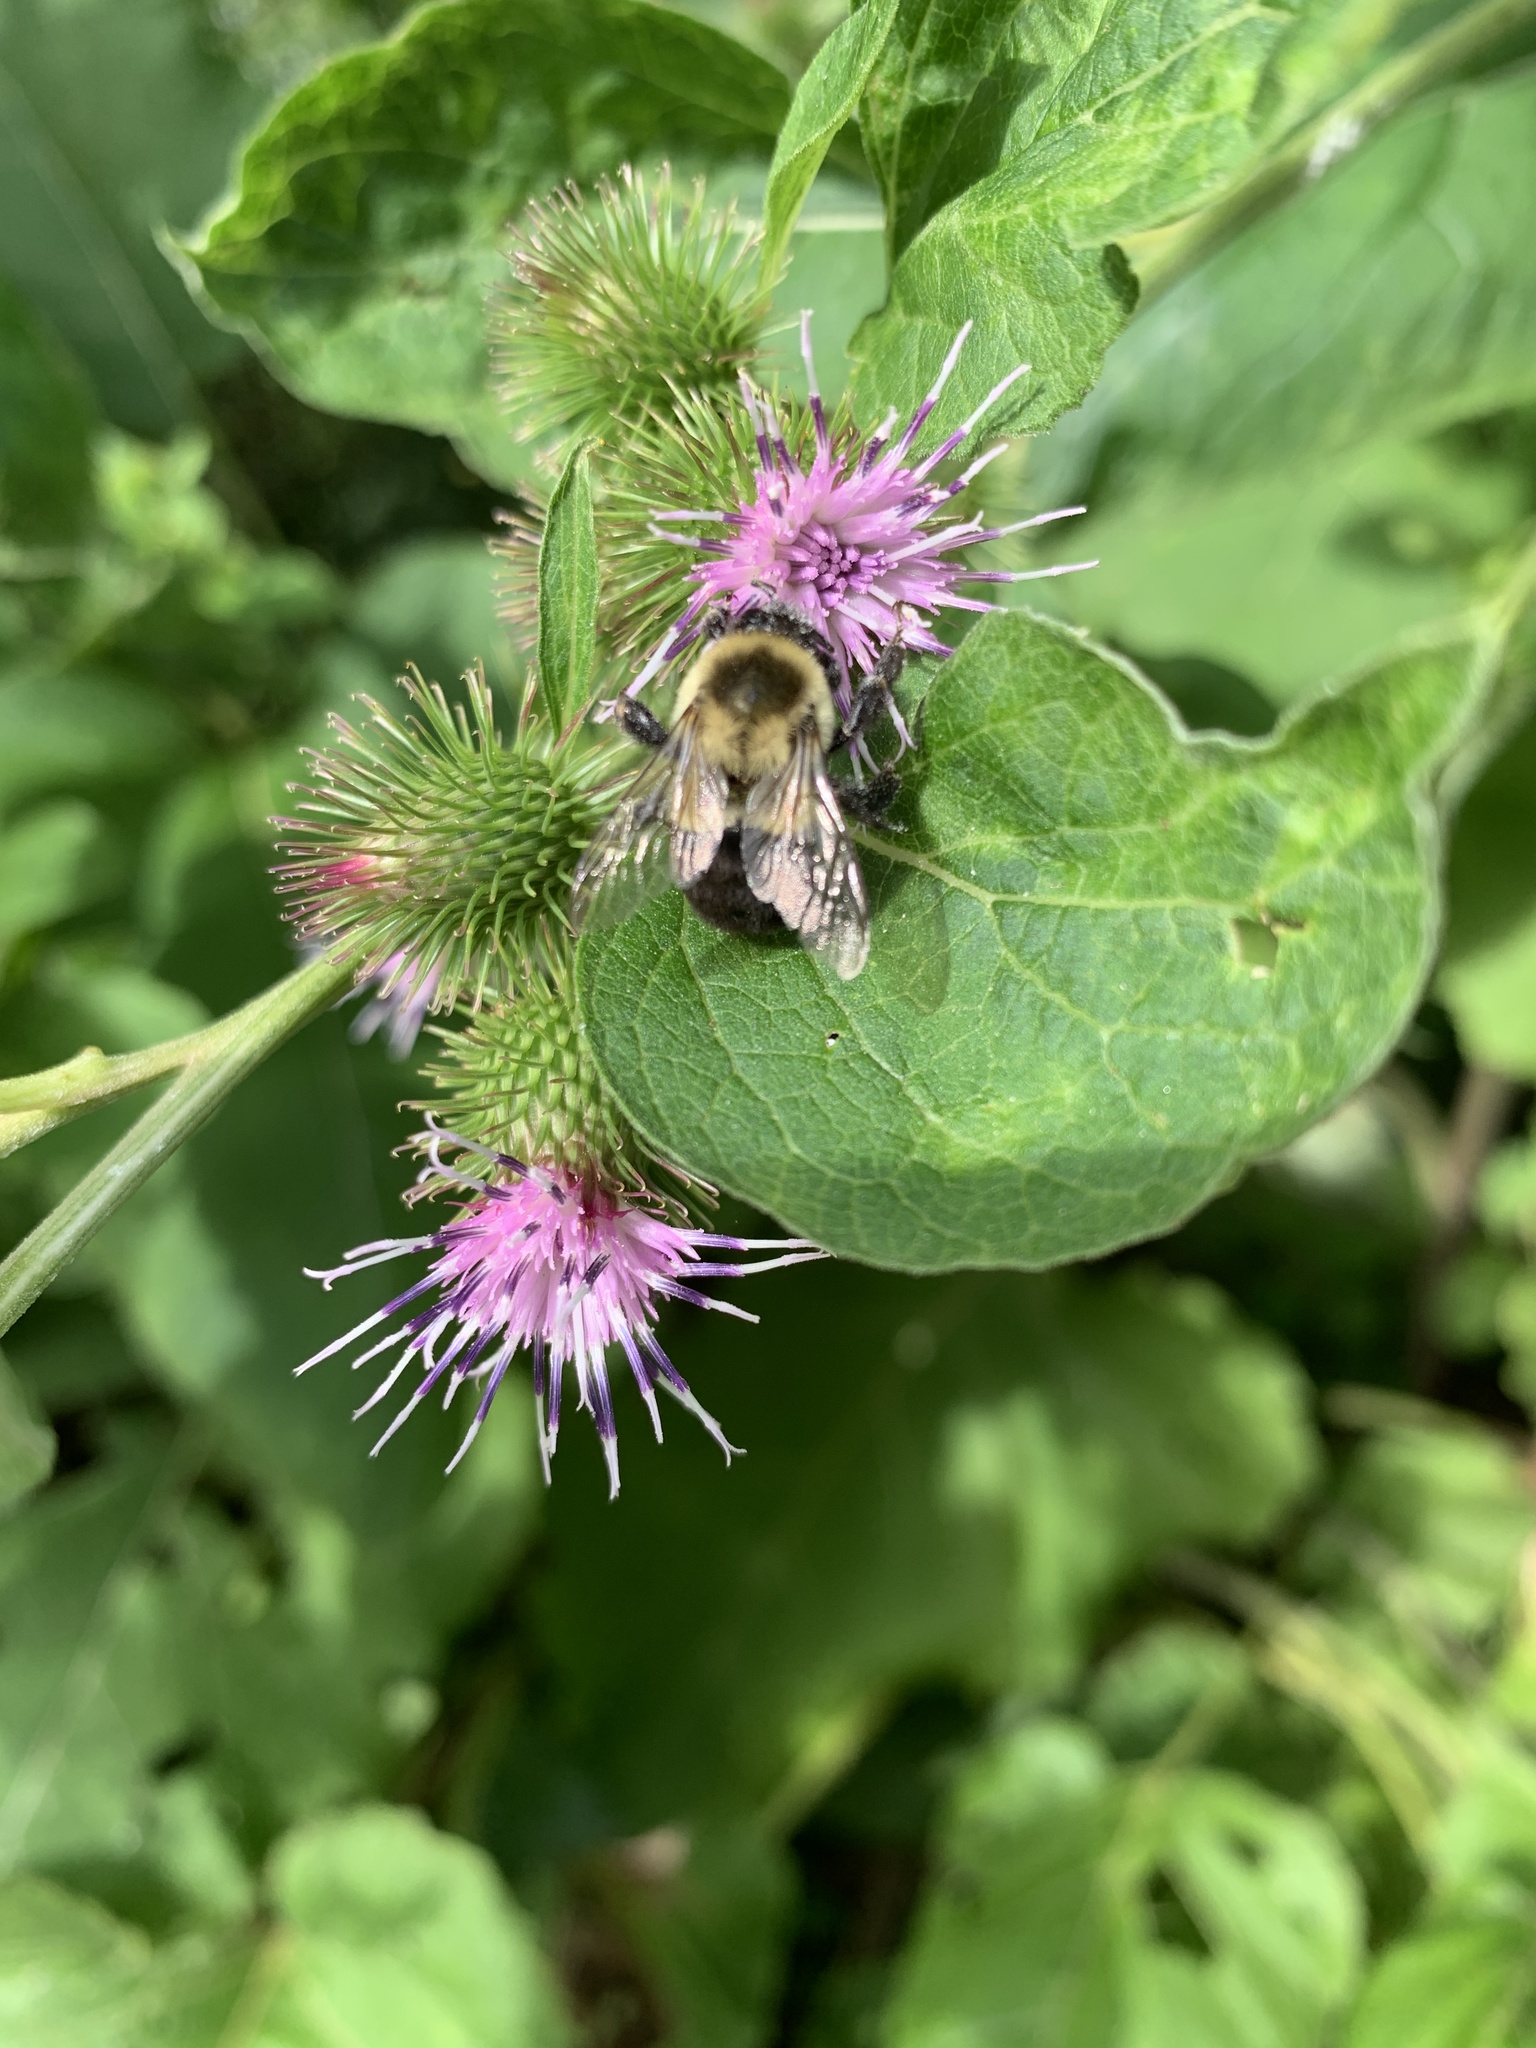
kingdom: Animalia
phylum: Arthropoda
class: Insecta
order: Hymenoptera
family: Apidae
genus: Bombus
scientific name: Bombus impatiens
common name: Common eastern bumble bee
